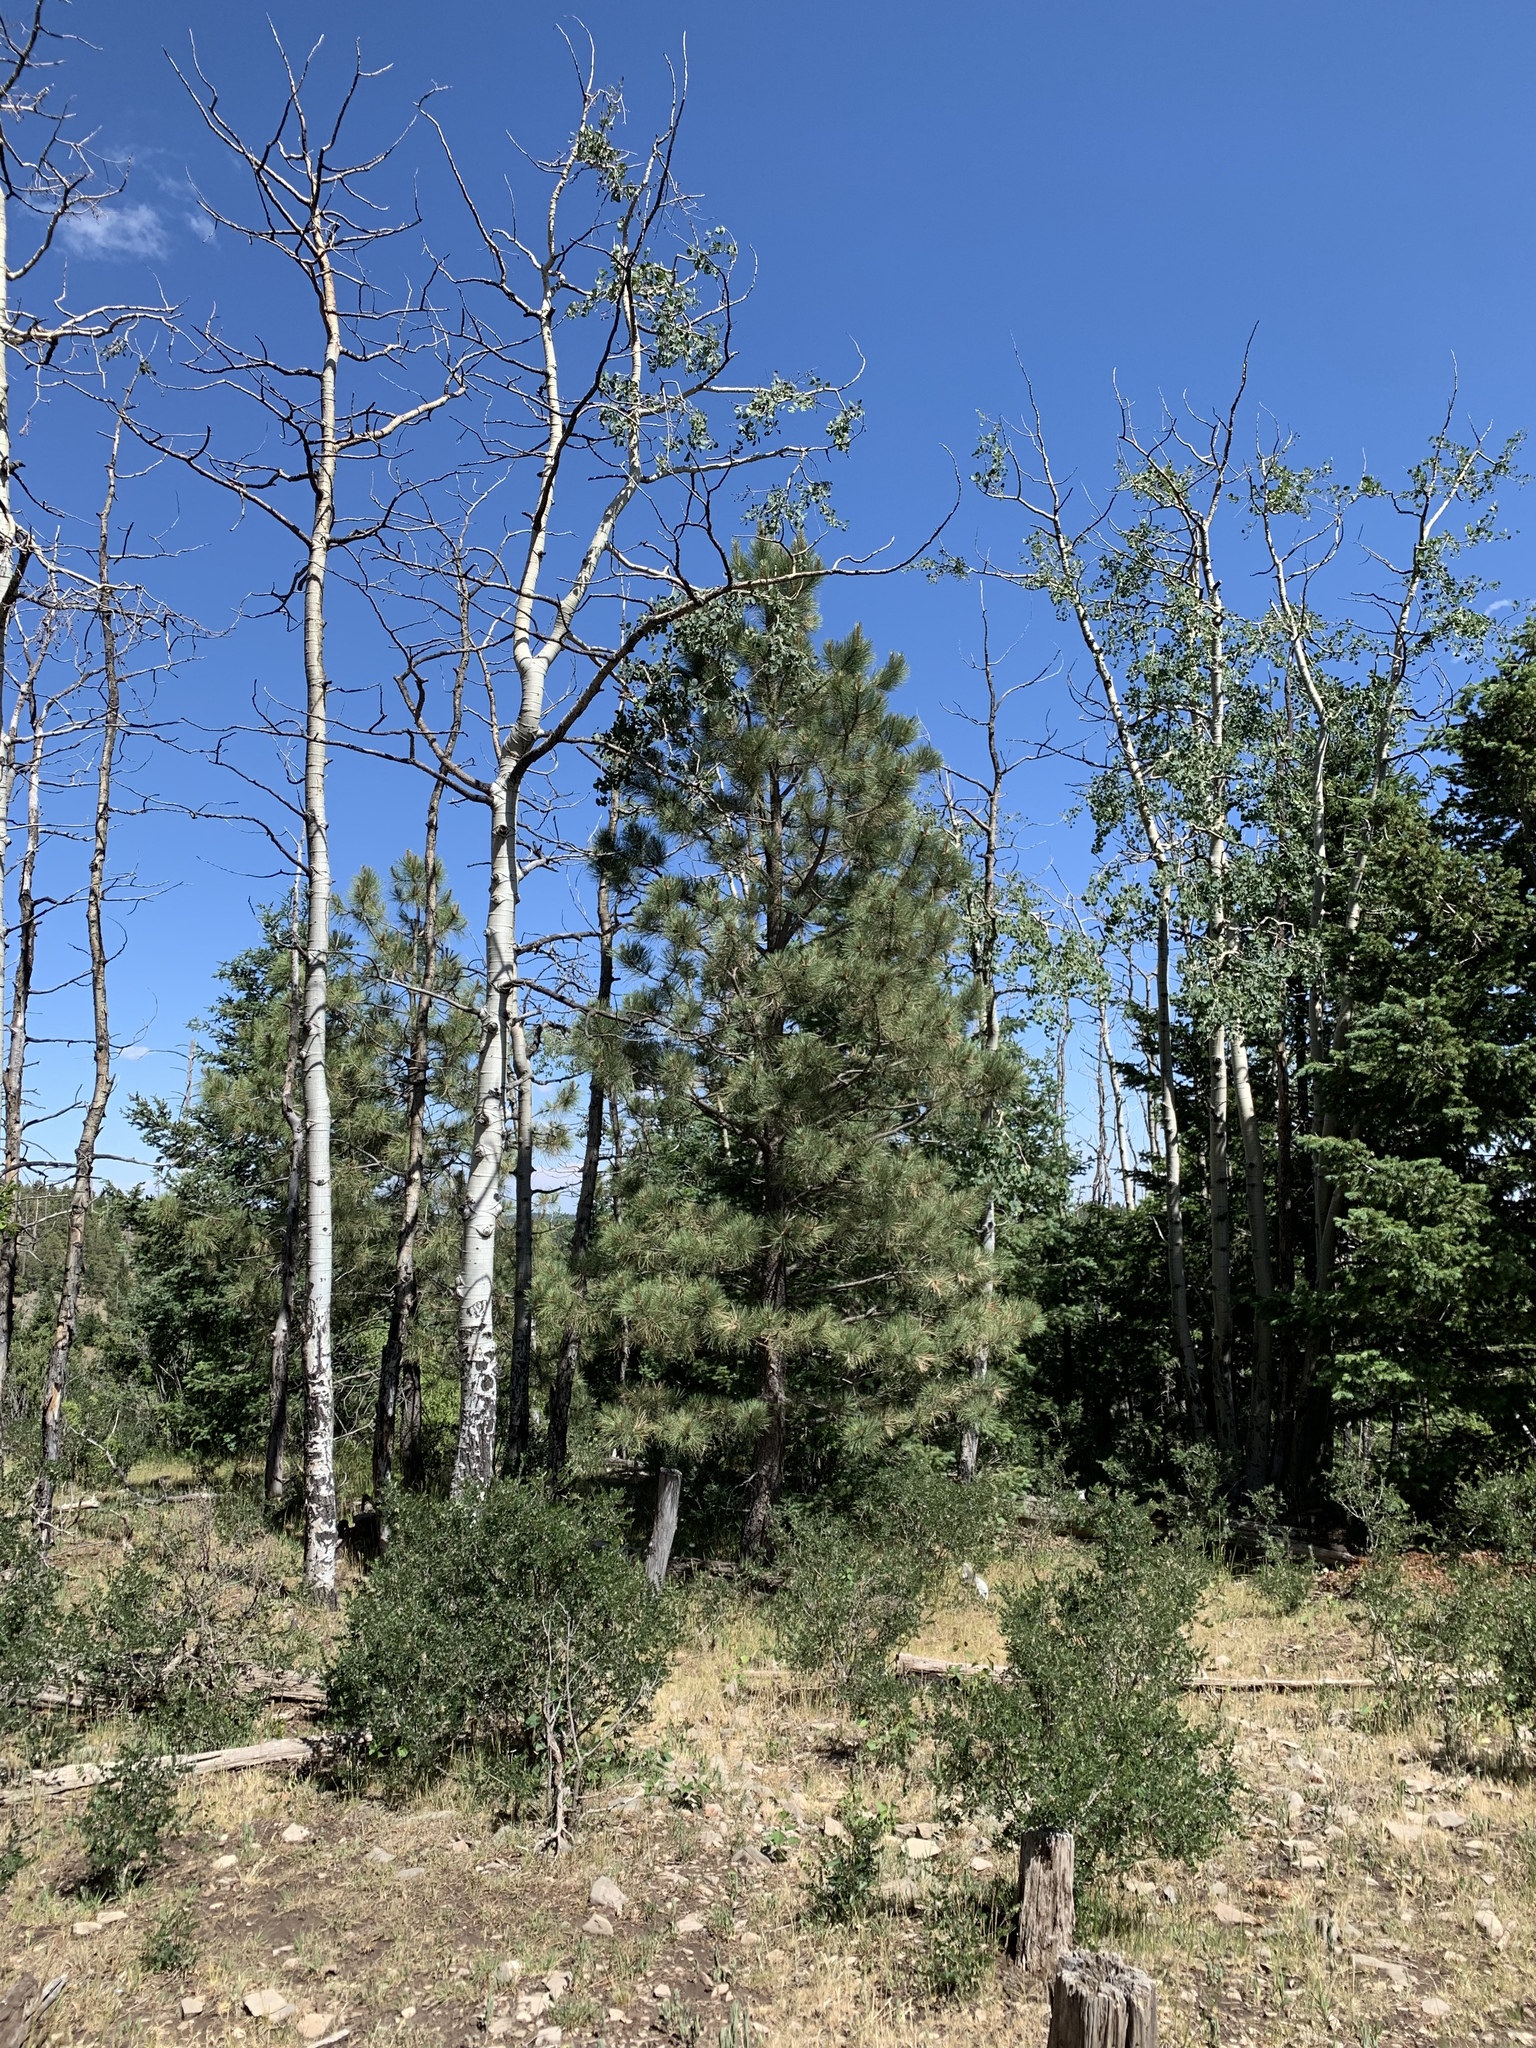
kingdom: Plantae
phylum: Tracheophyta
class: Pinopsida
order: Pinales
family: Pinaceae
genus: Pinus
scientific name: Pinus ponderosa
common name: Western yellow-pine
